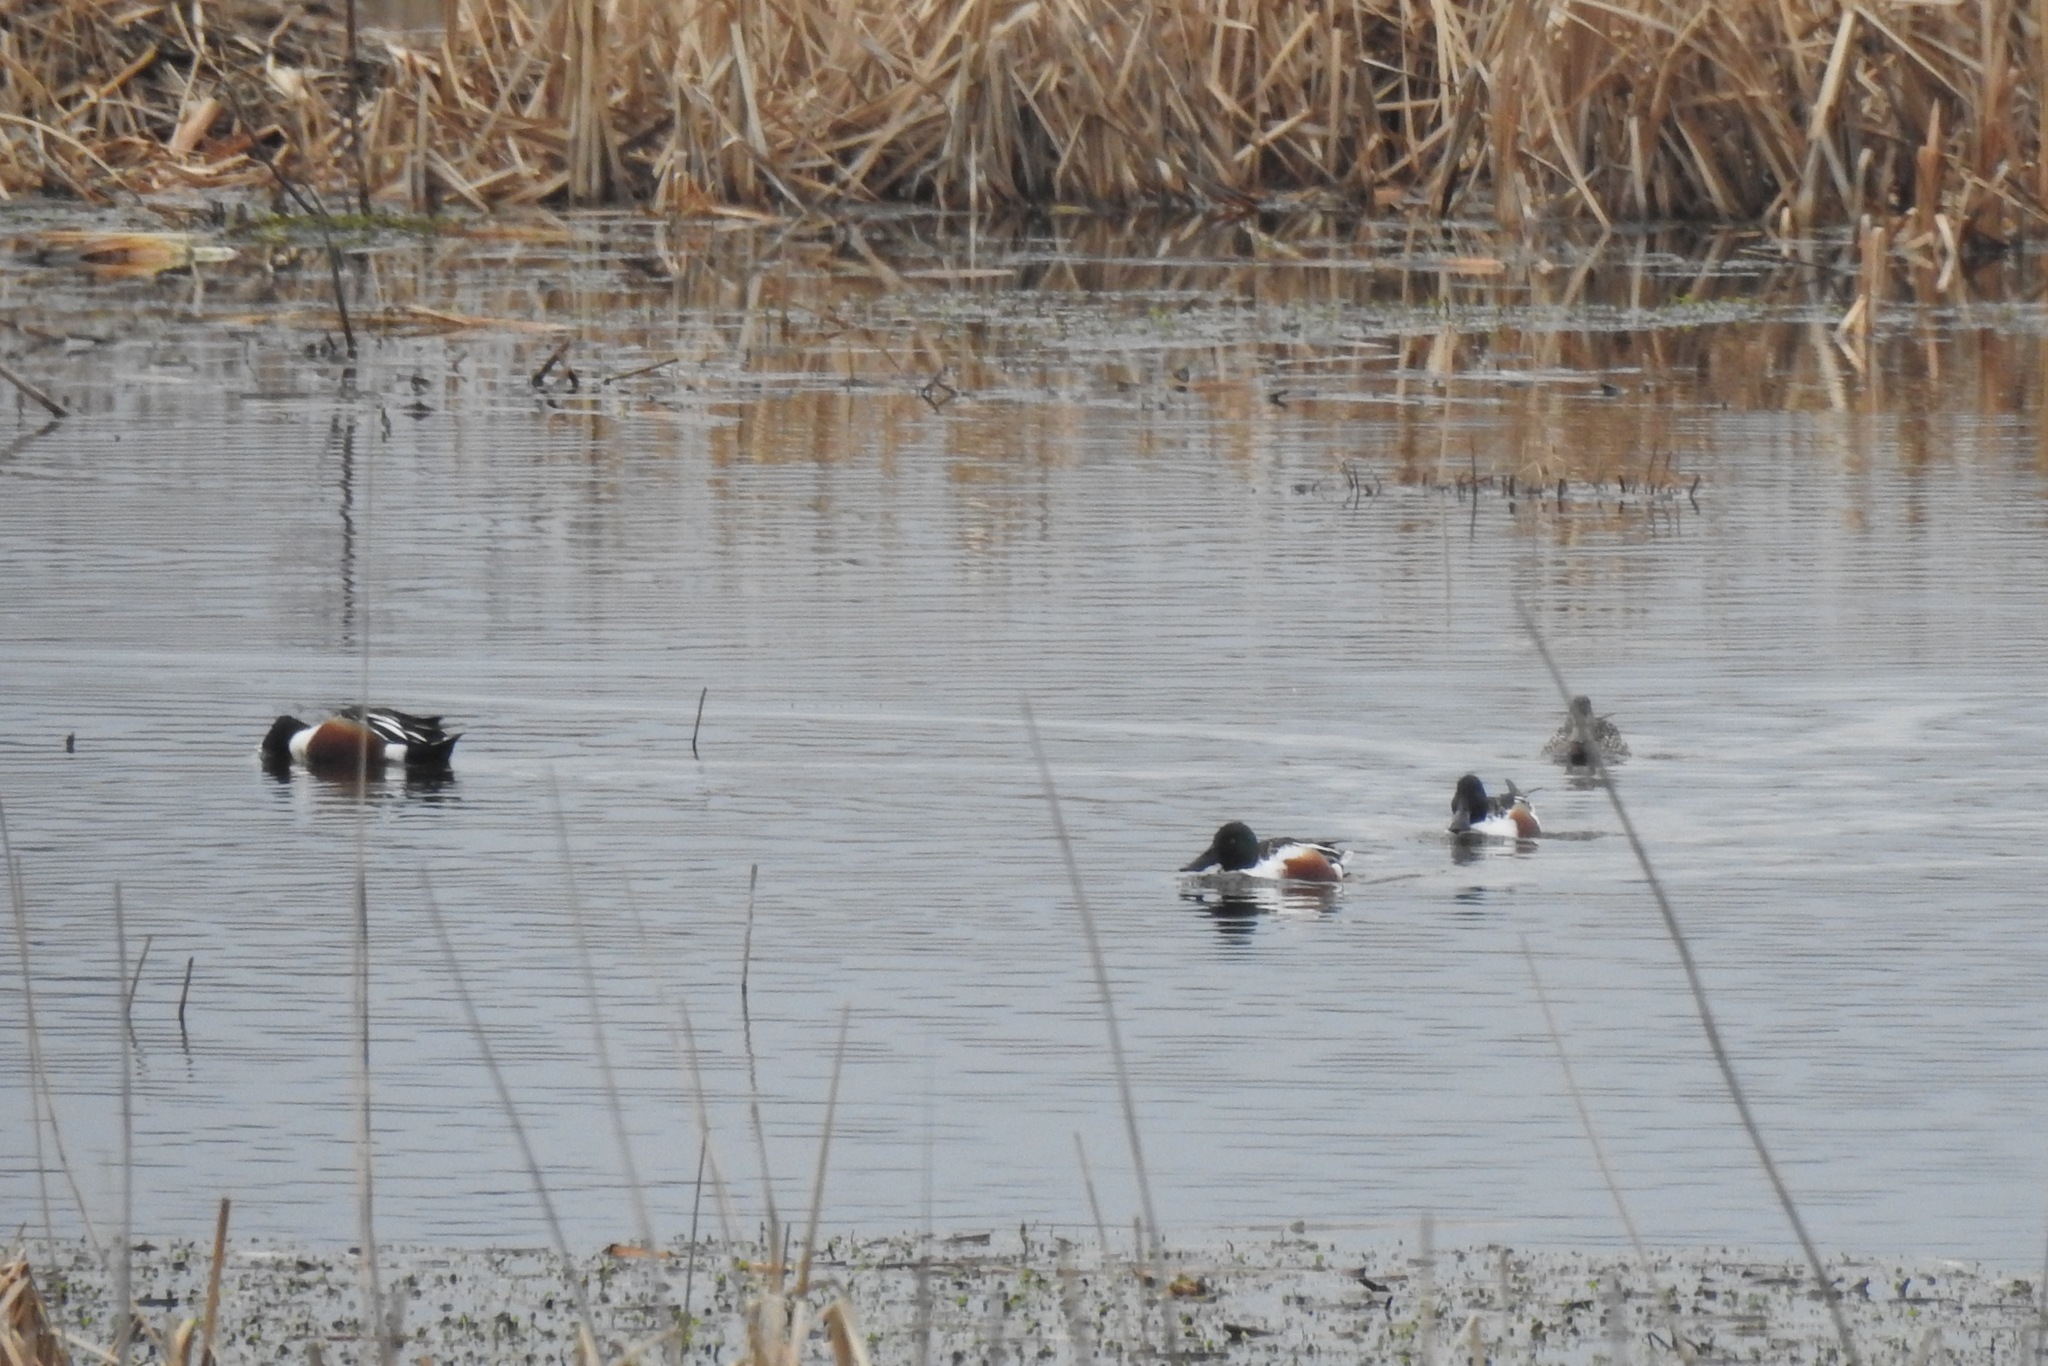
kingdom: Animalia
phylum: Chordata
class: Aves
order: Anseriformes
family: Anatidae
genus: Spatula
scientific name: Spatula clypeata
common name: Northern shoveler
